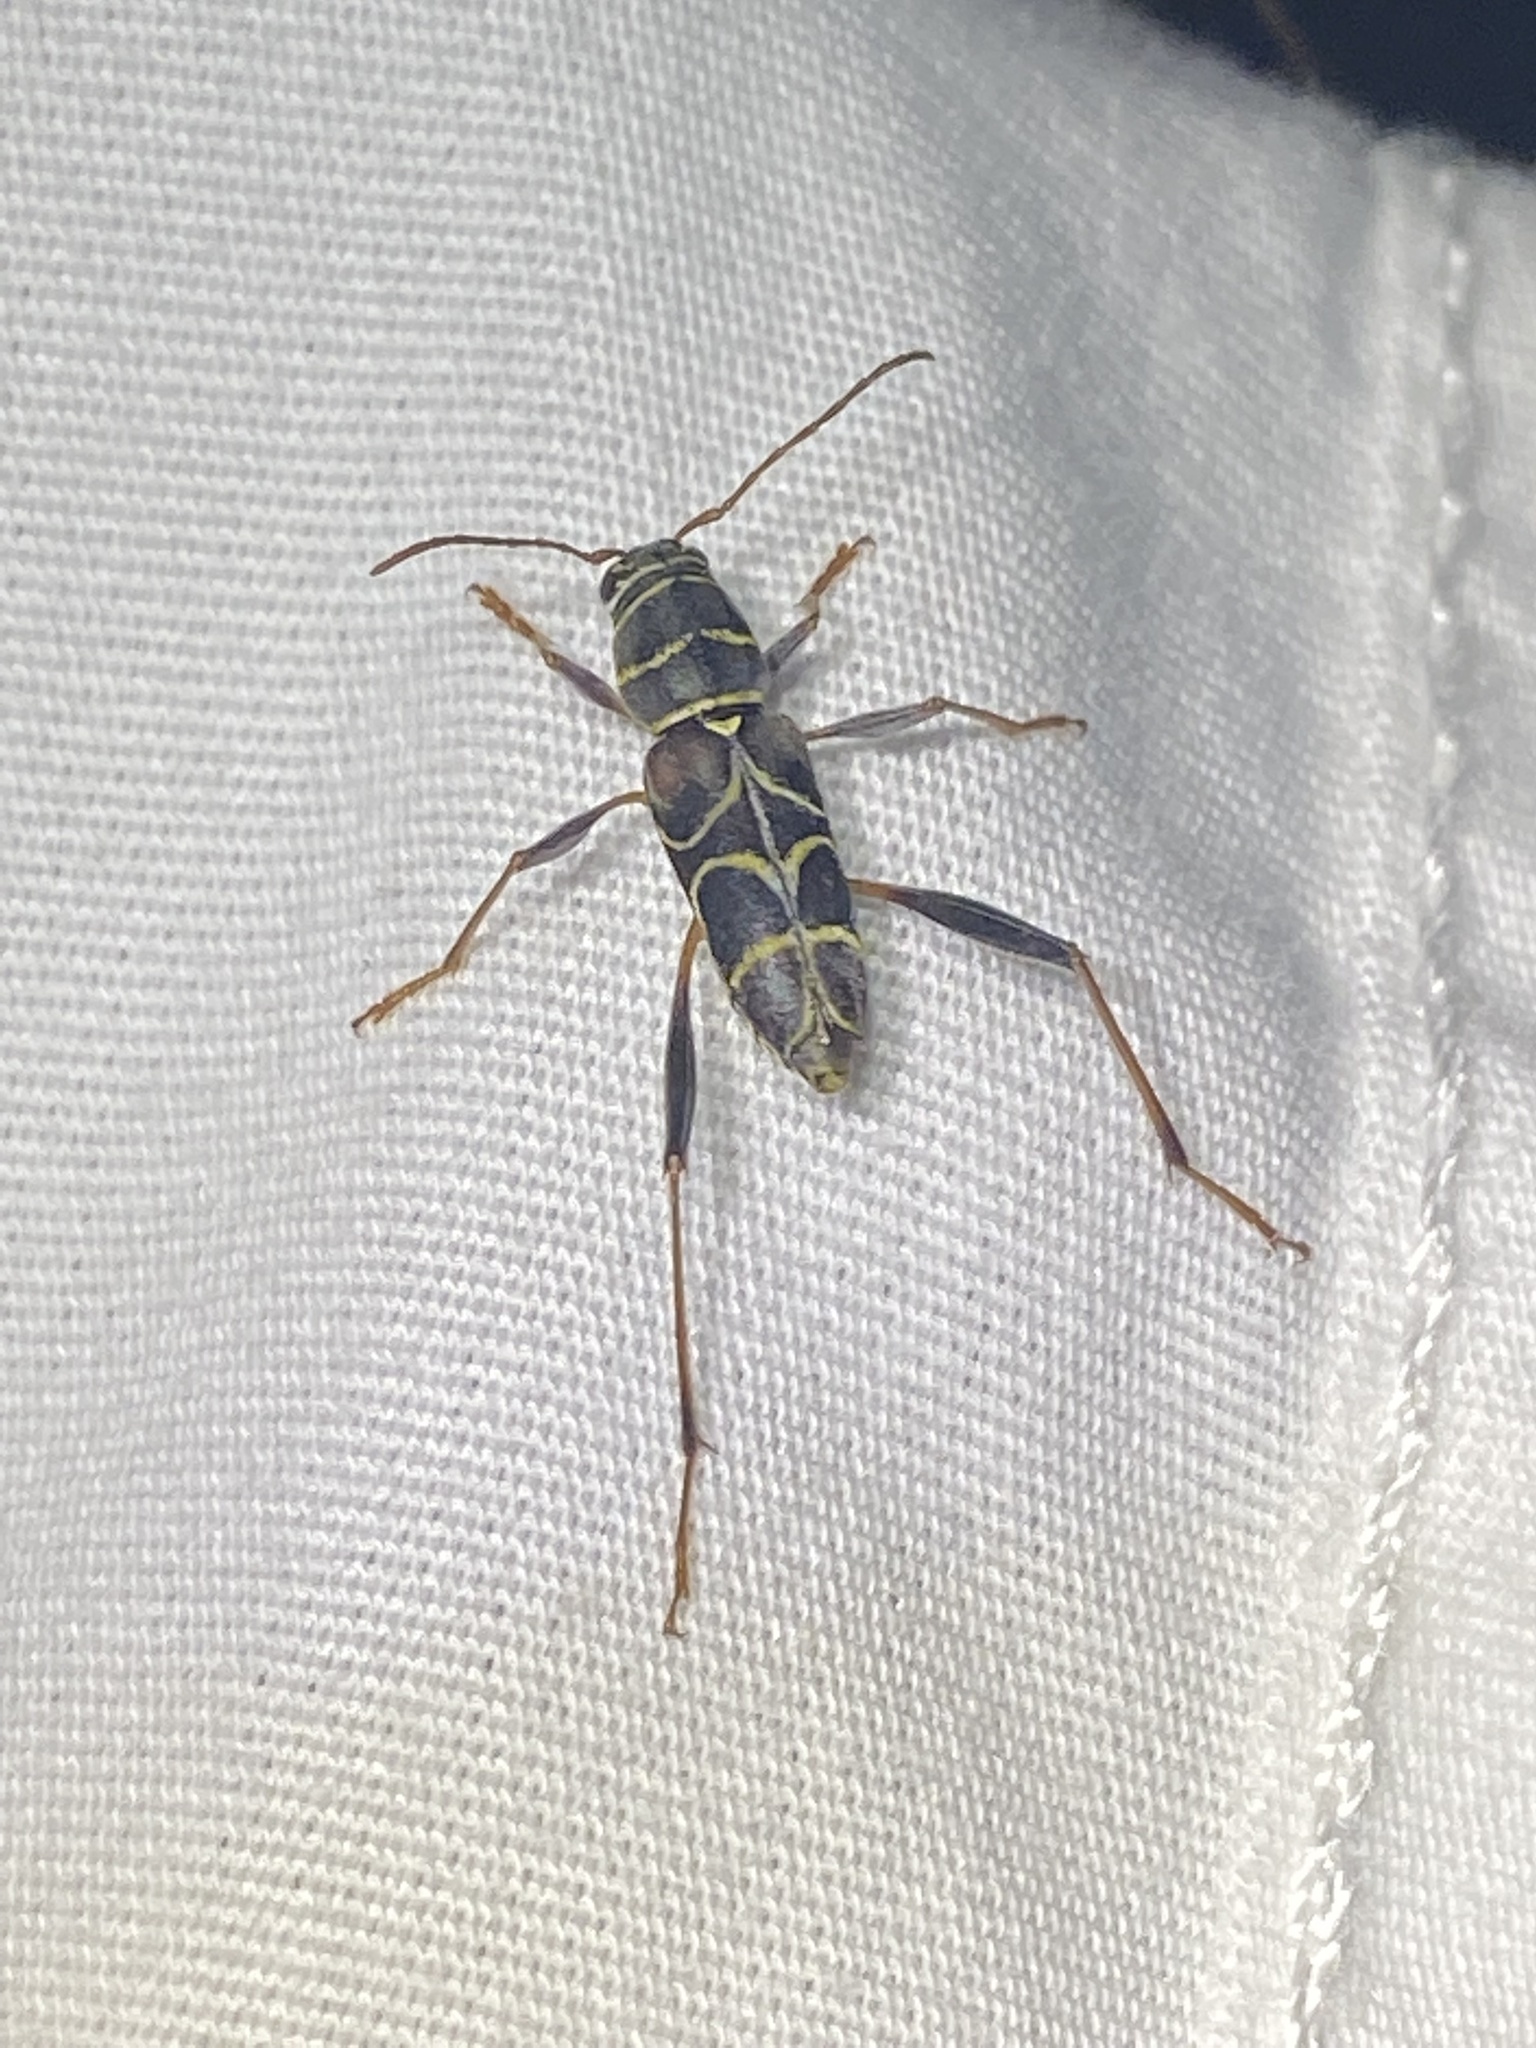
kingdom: Animalia
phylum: Arthropoda
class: Insecta
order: Coleoptera
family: Cerambycidae
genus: Neoclytus
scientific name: Neoclytus scutellaris
